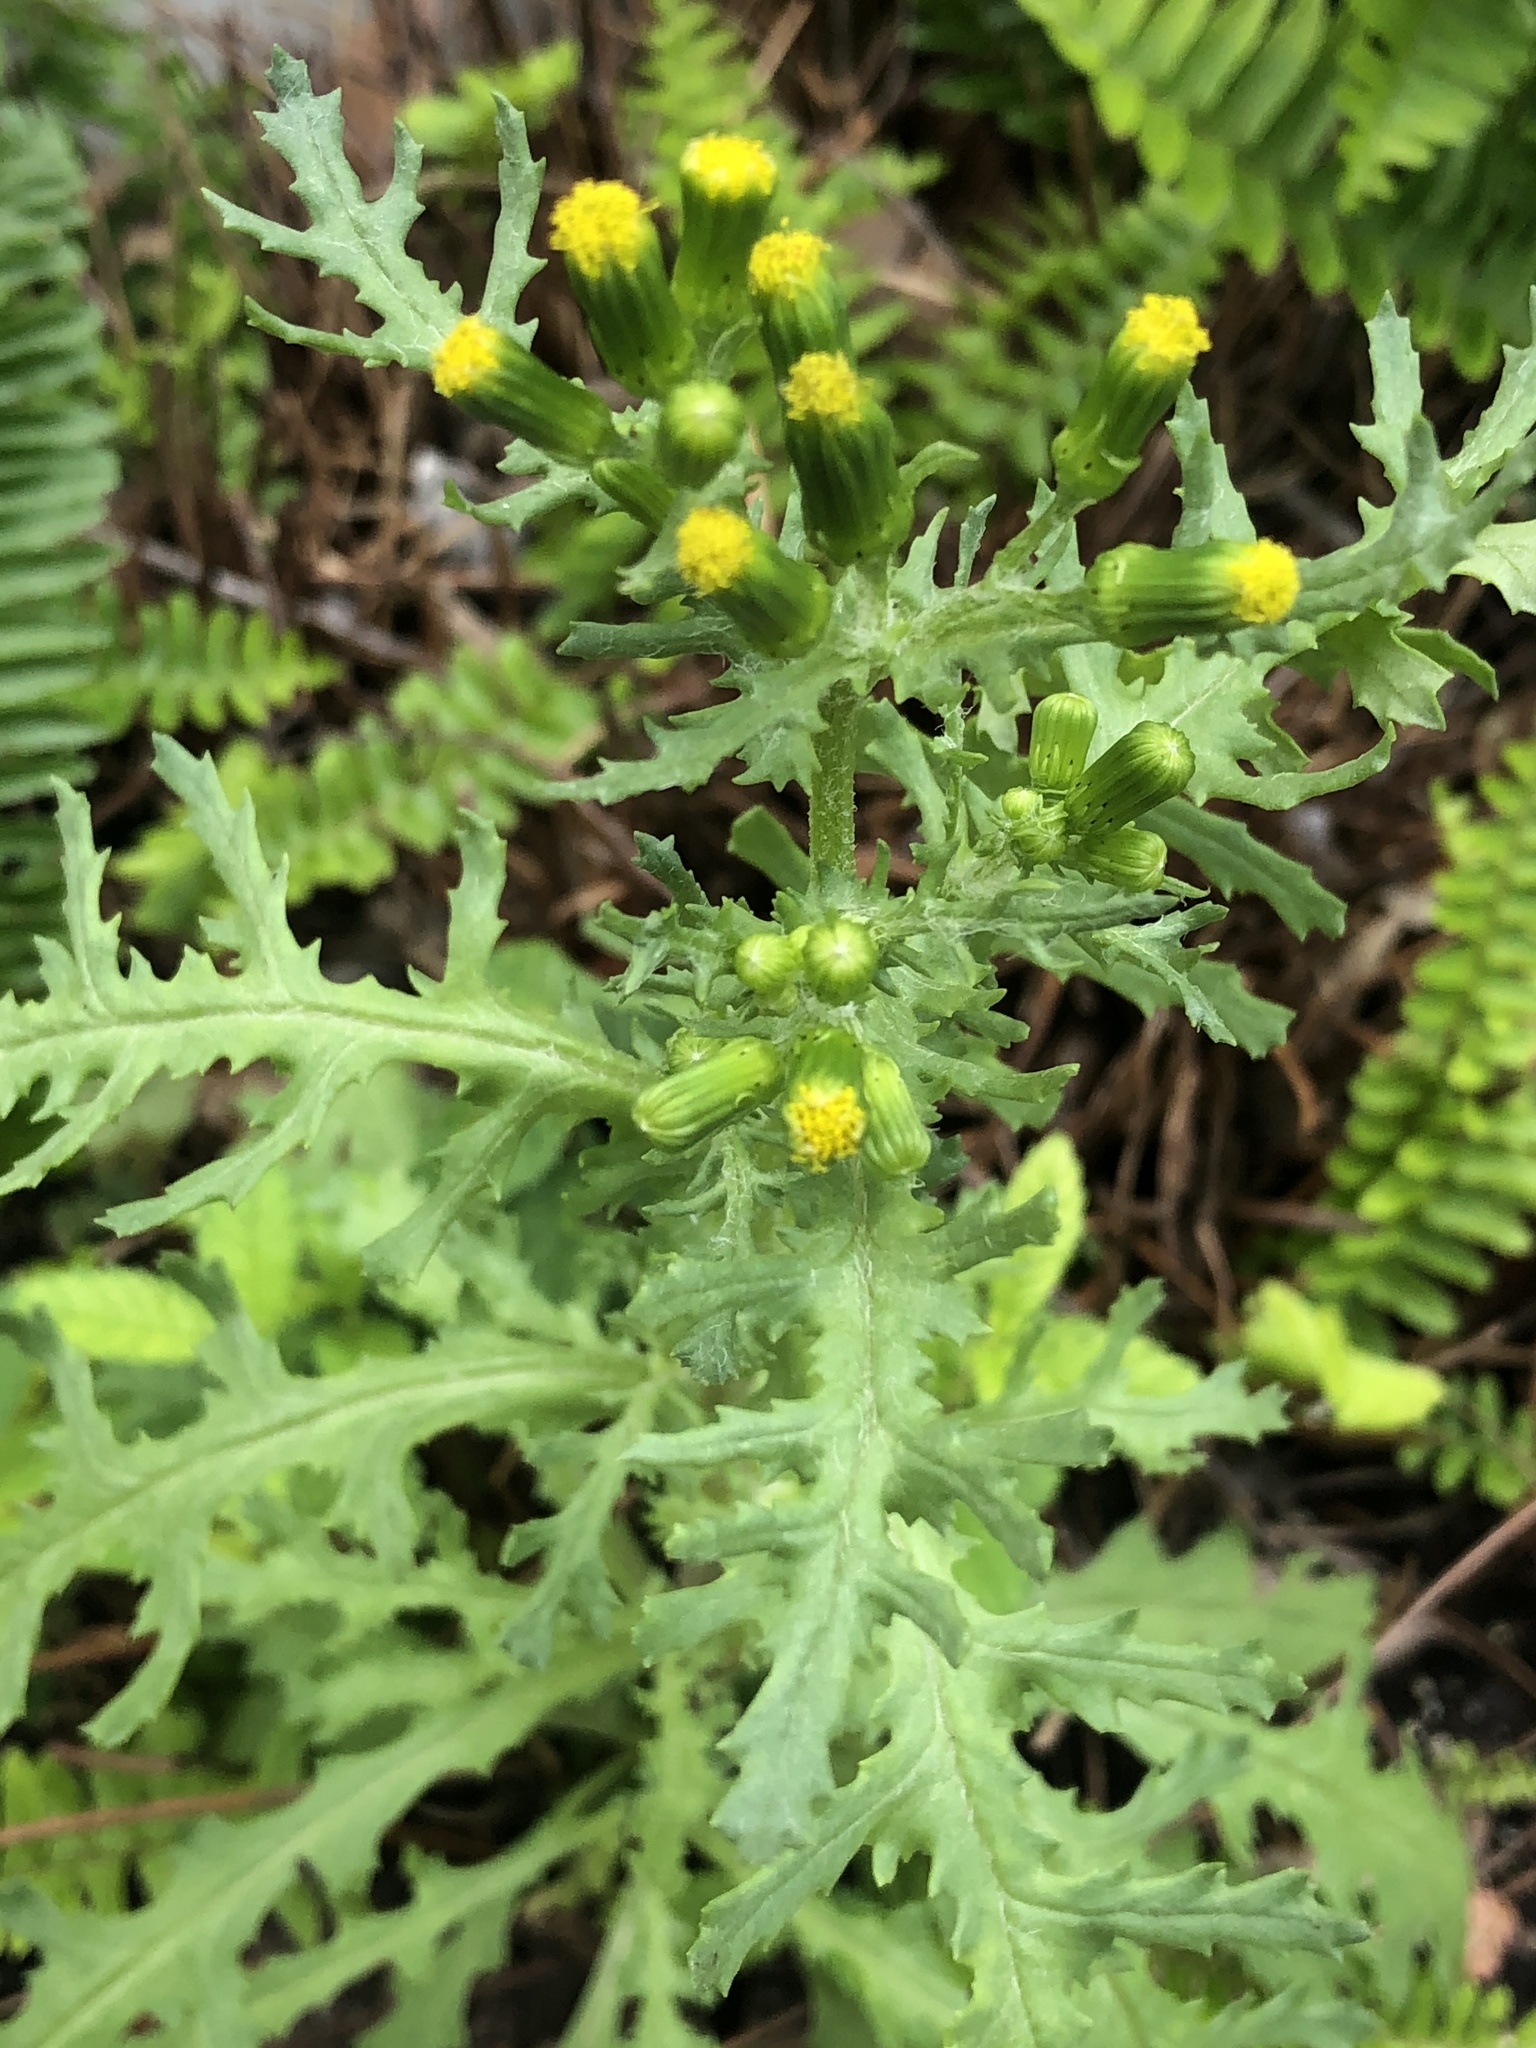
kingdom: Plantae
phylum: Tracheophyta
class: Magnoliopsida
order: Asterales
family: Asteraceae
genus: Senecio
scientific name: Senecio vulgaris
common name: Old-man-in-the-spring
